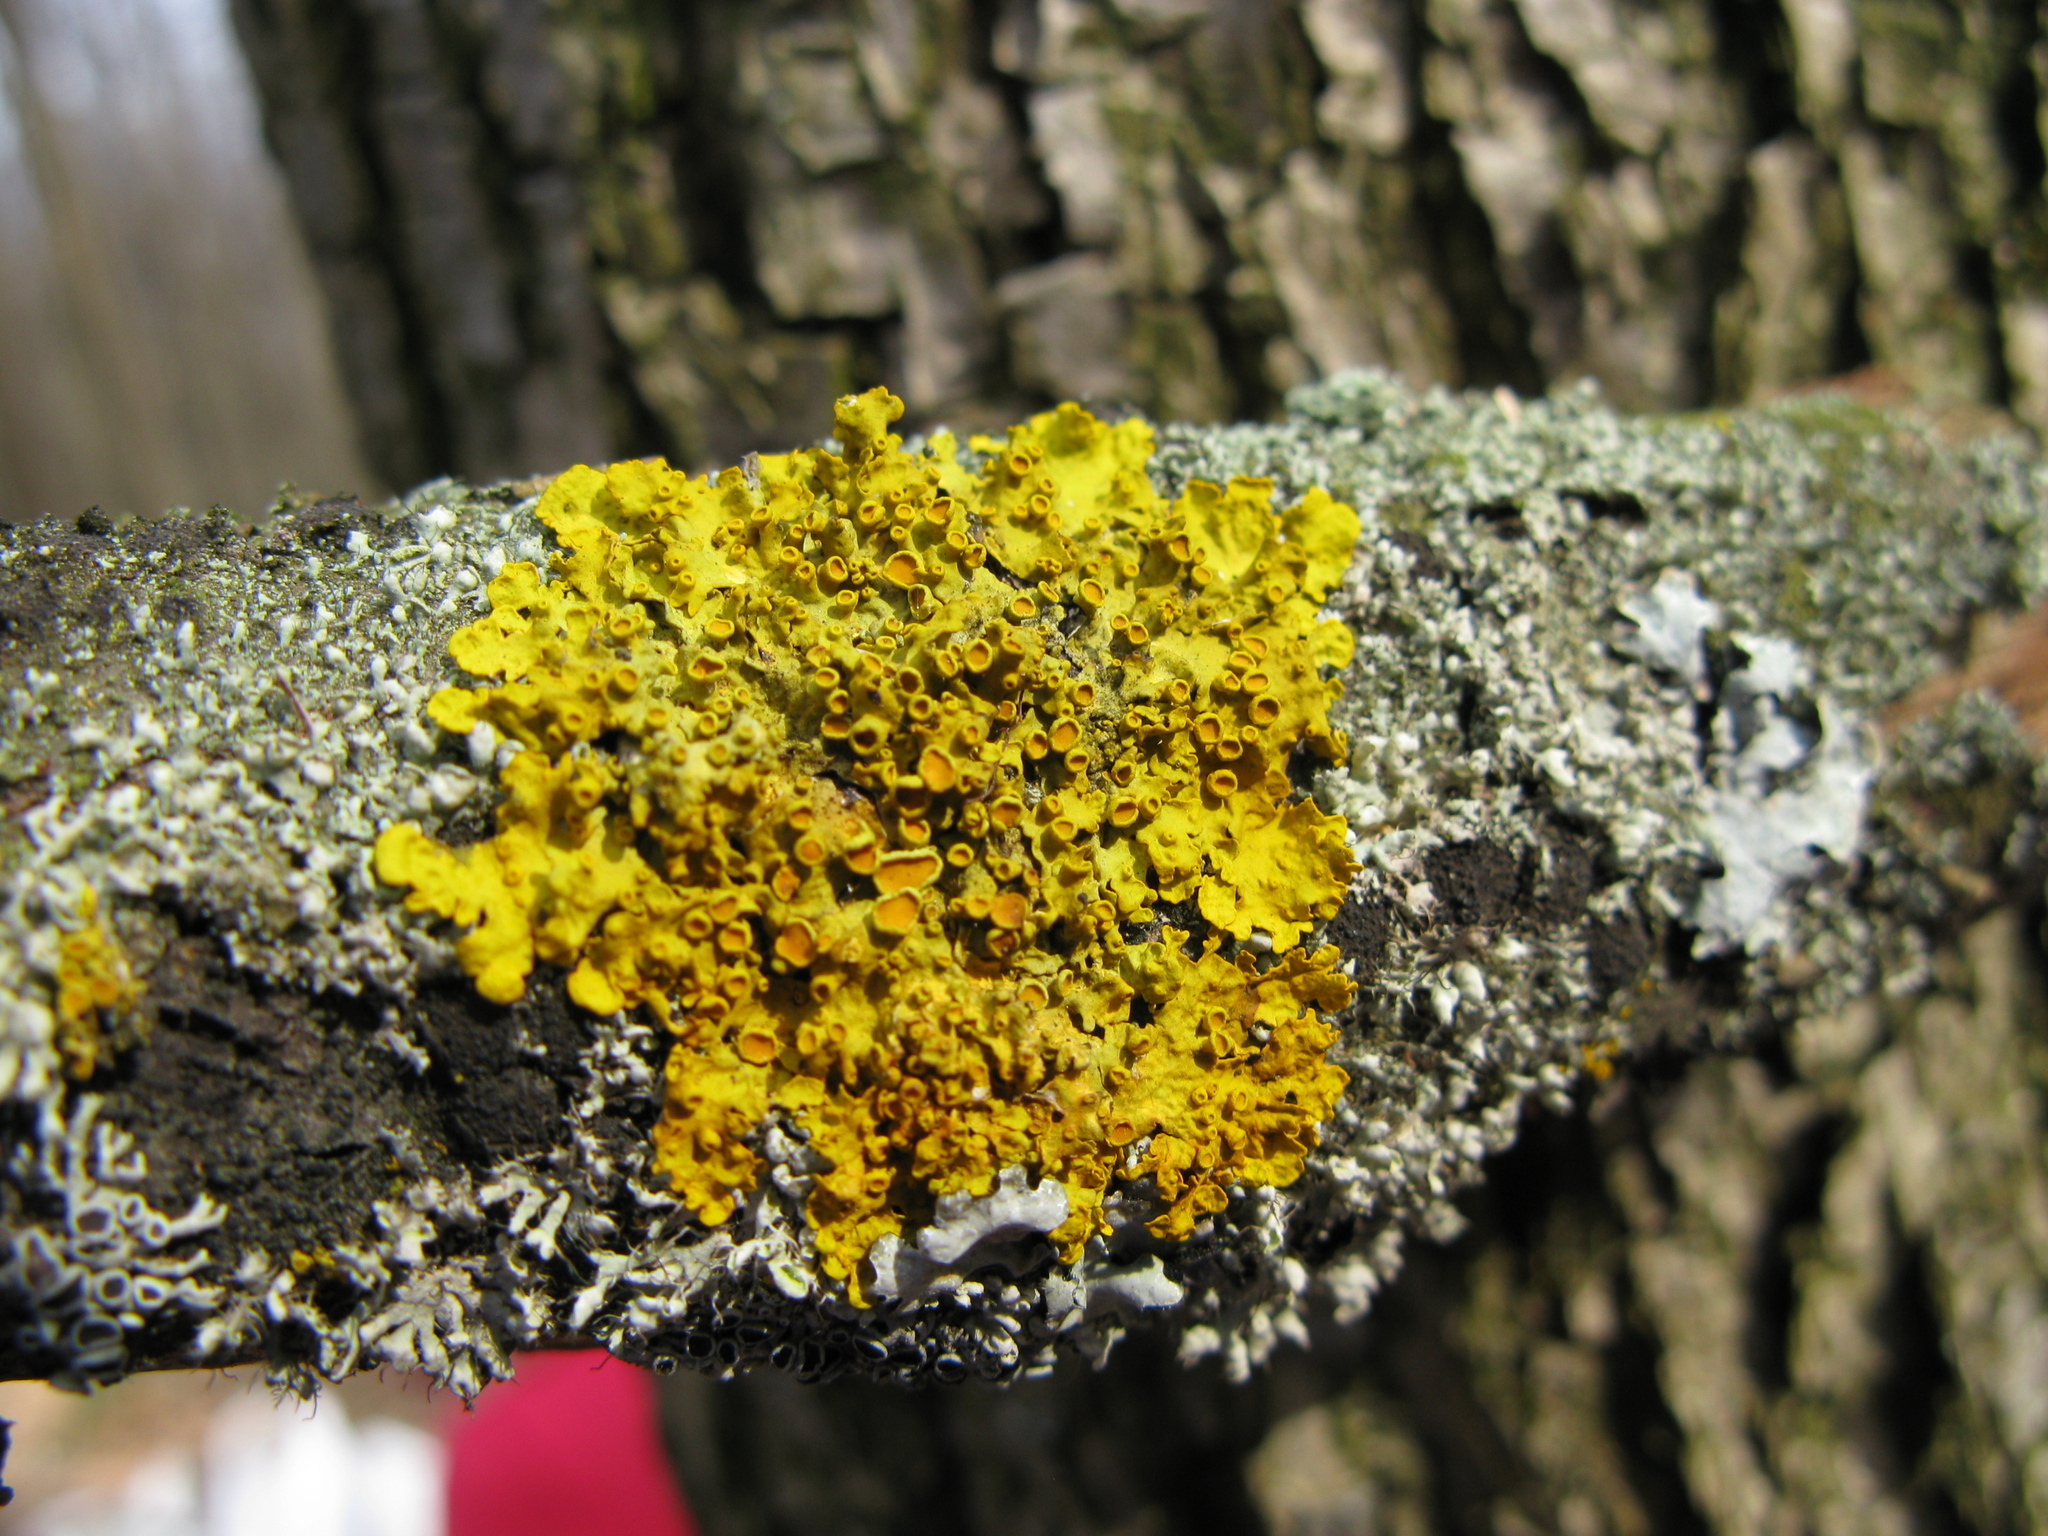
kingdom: Fungi
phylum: Ascomycota
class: Lecanoromycetes
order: Teloschistales
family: Teloschistaceae
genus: Xanthoria
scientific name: Xanthoria parietina
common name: Common orange lichen
